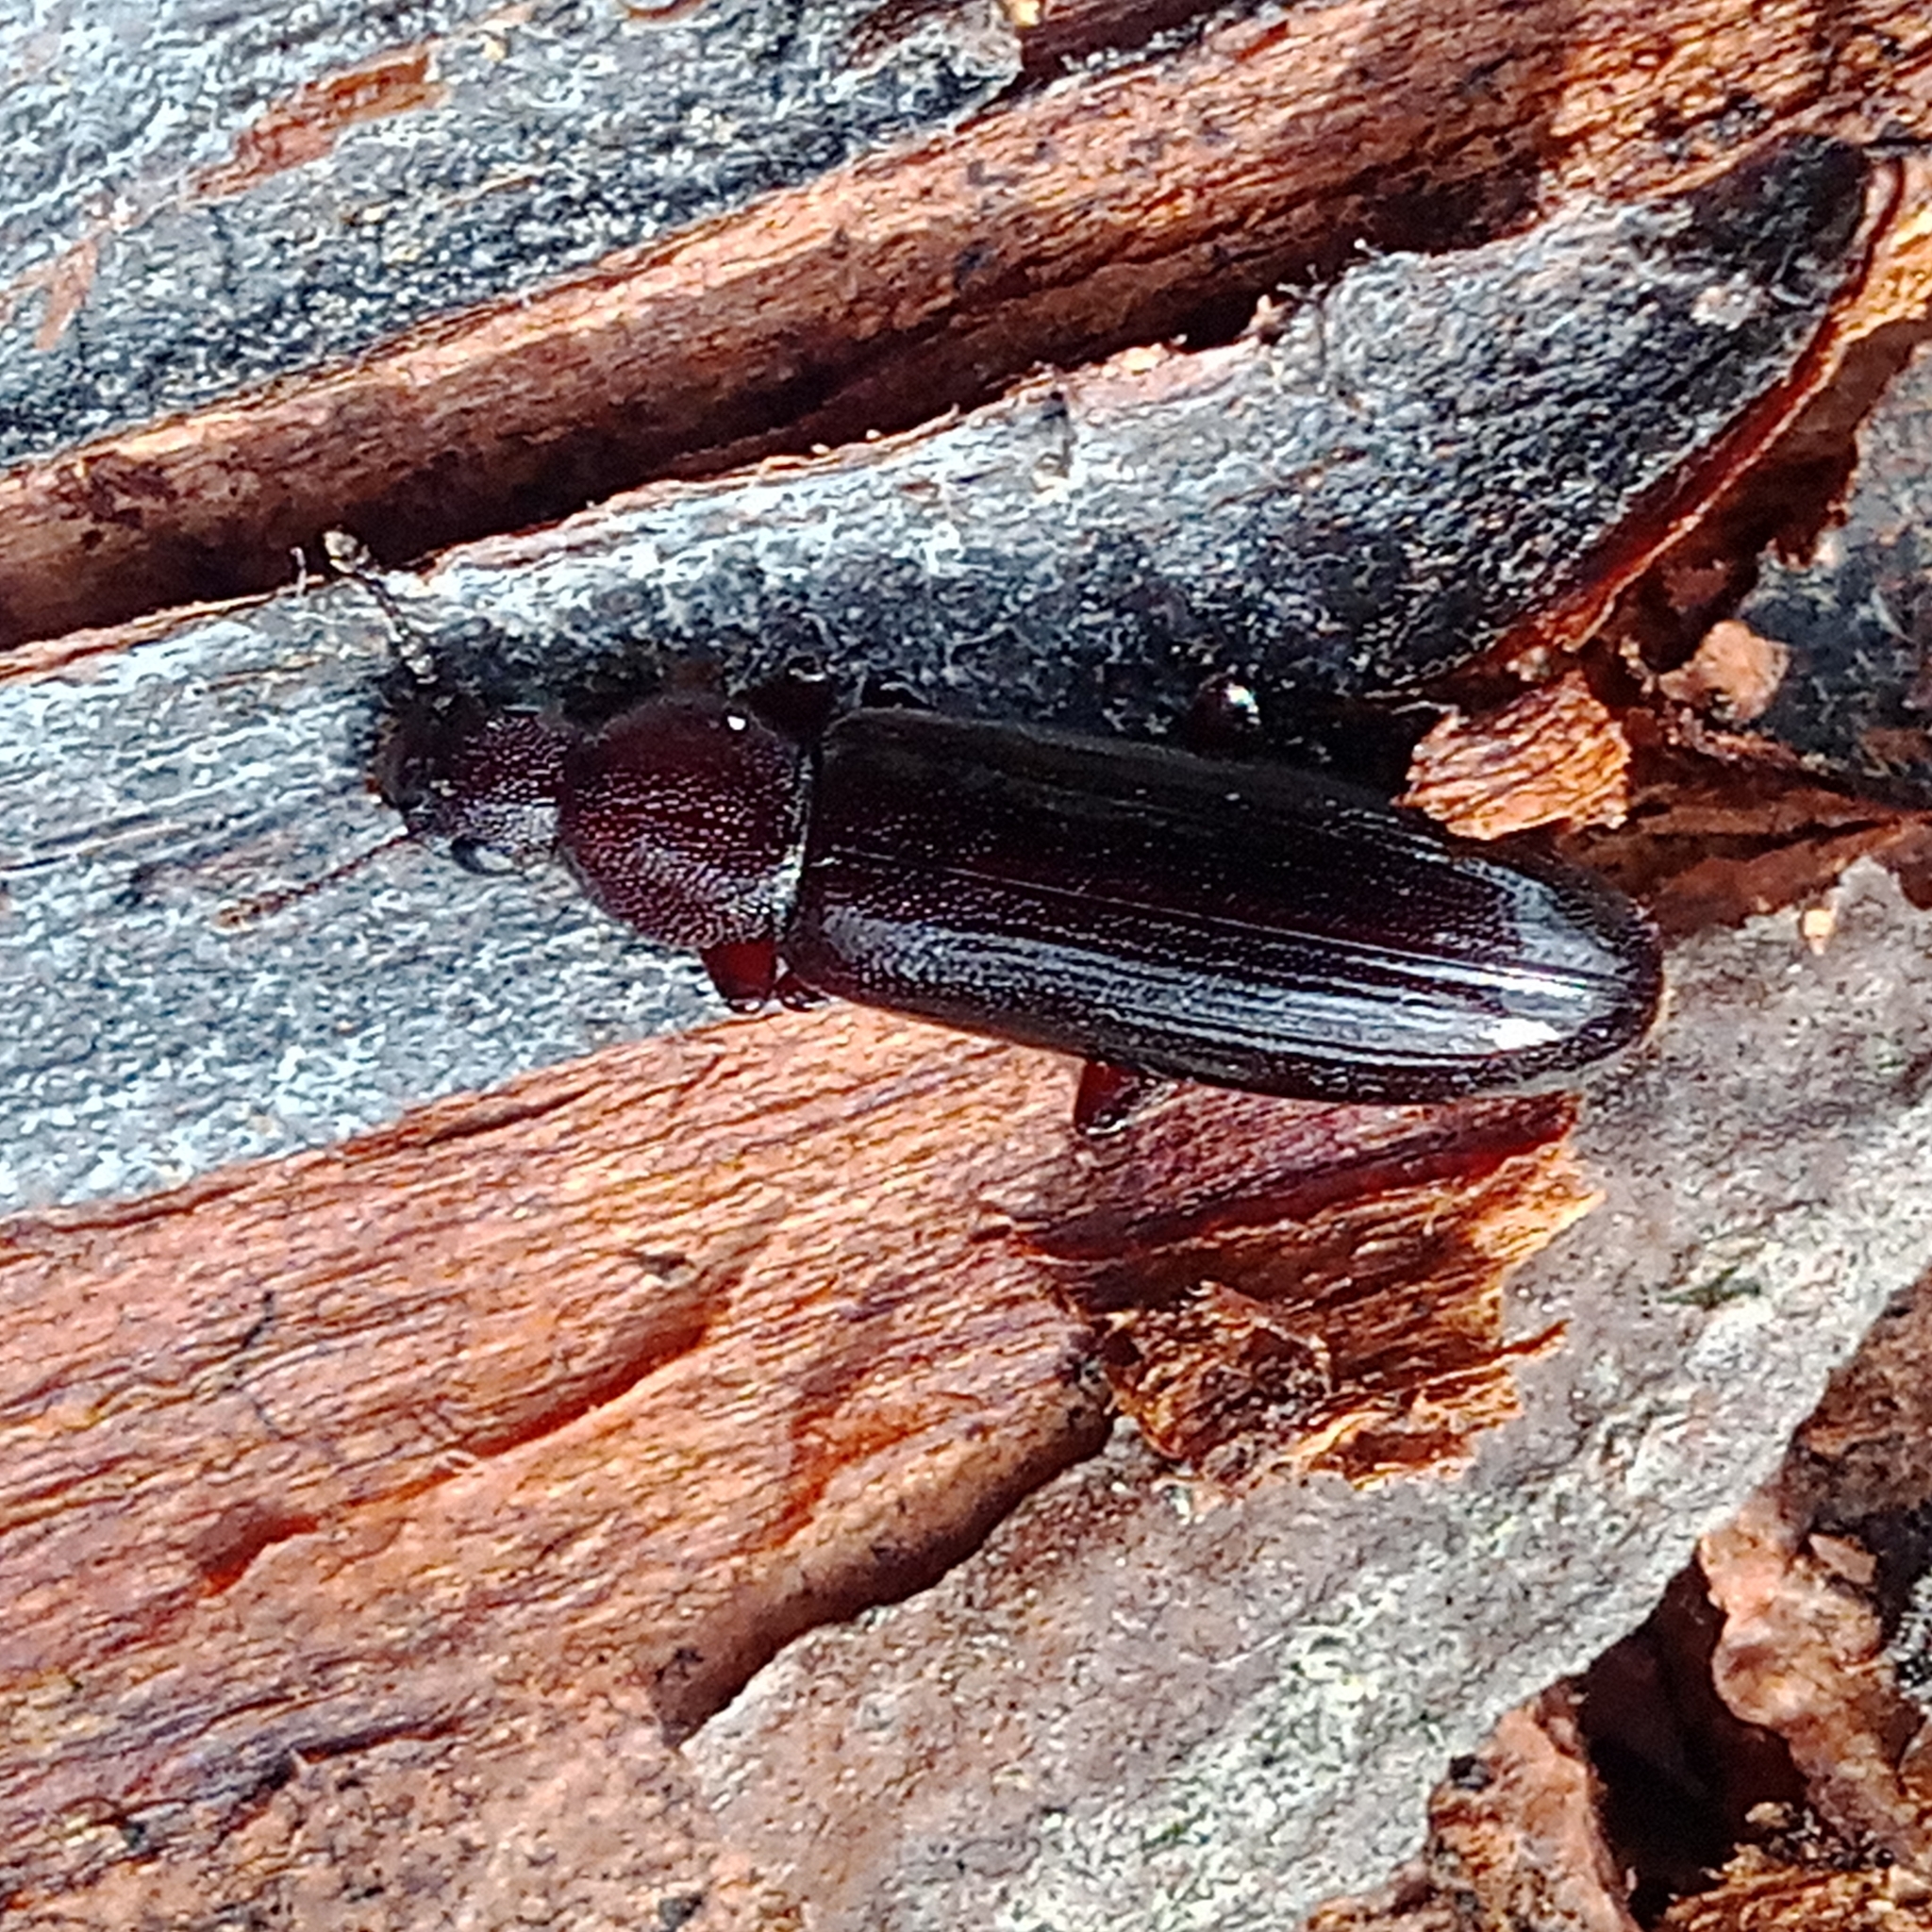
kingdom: Animalia
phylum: Arthropoda
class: Insecta
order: Coleoptera
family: Boridae
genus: Boros
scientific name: Boros schneideri
